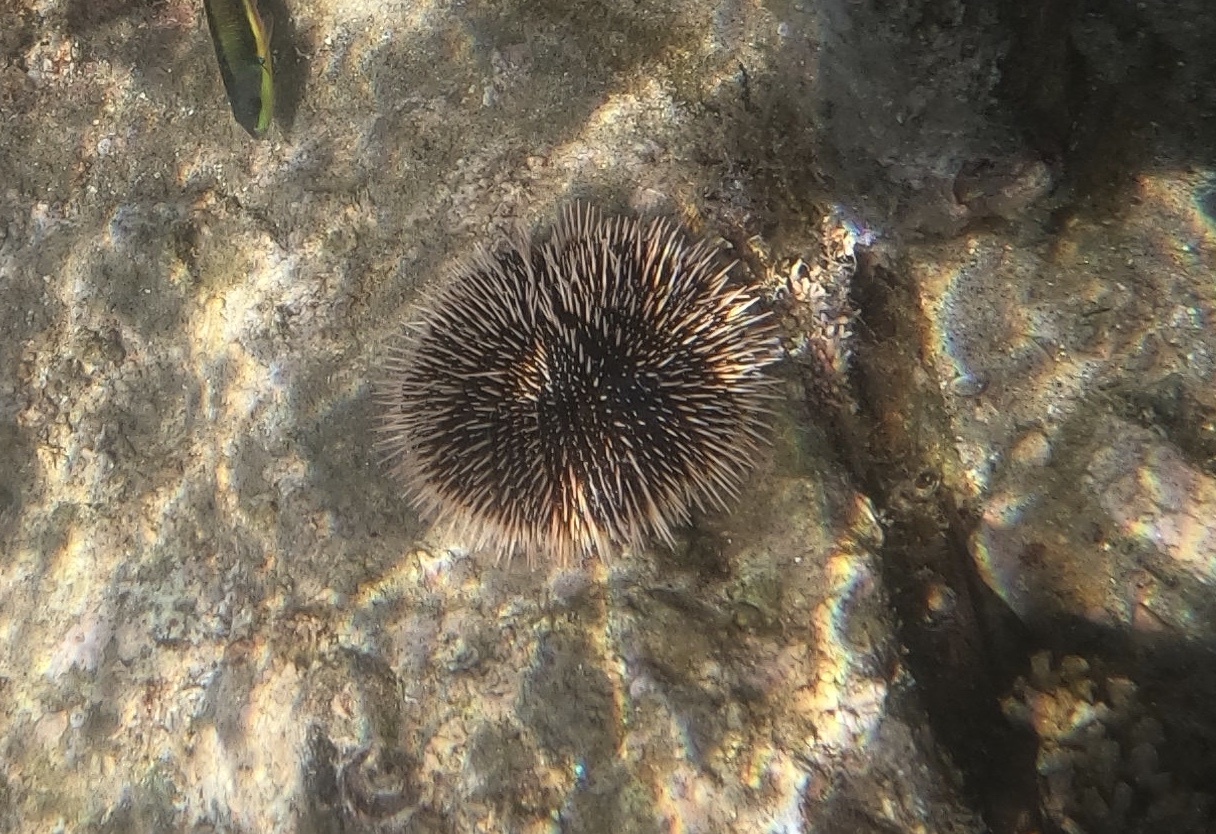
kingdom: Animalia
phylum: Echinodermata
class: Echinoidea
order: Camarodonta
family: Toxopneustidae
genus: Tripneustes
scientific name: Tripneustes depressus
